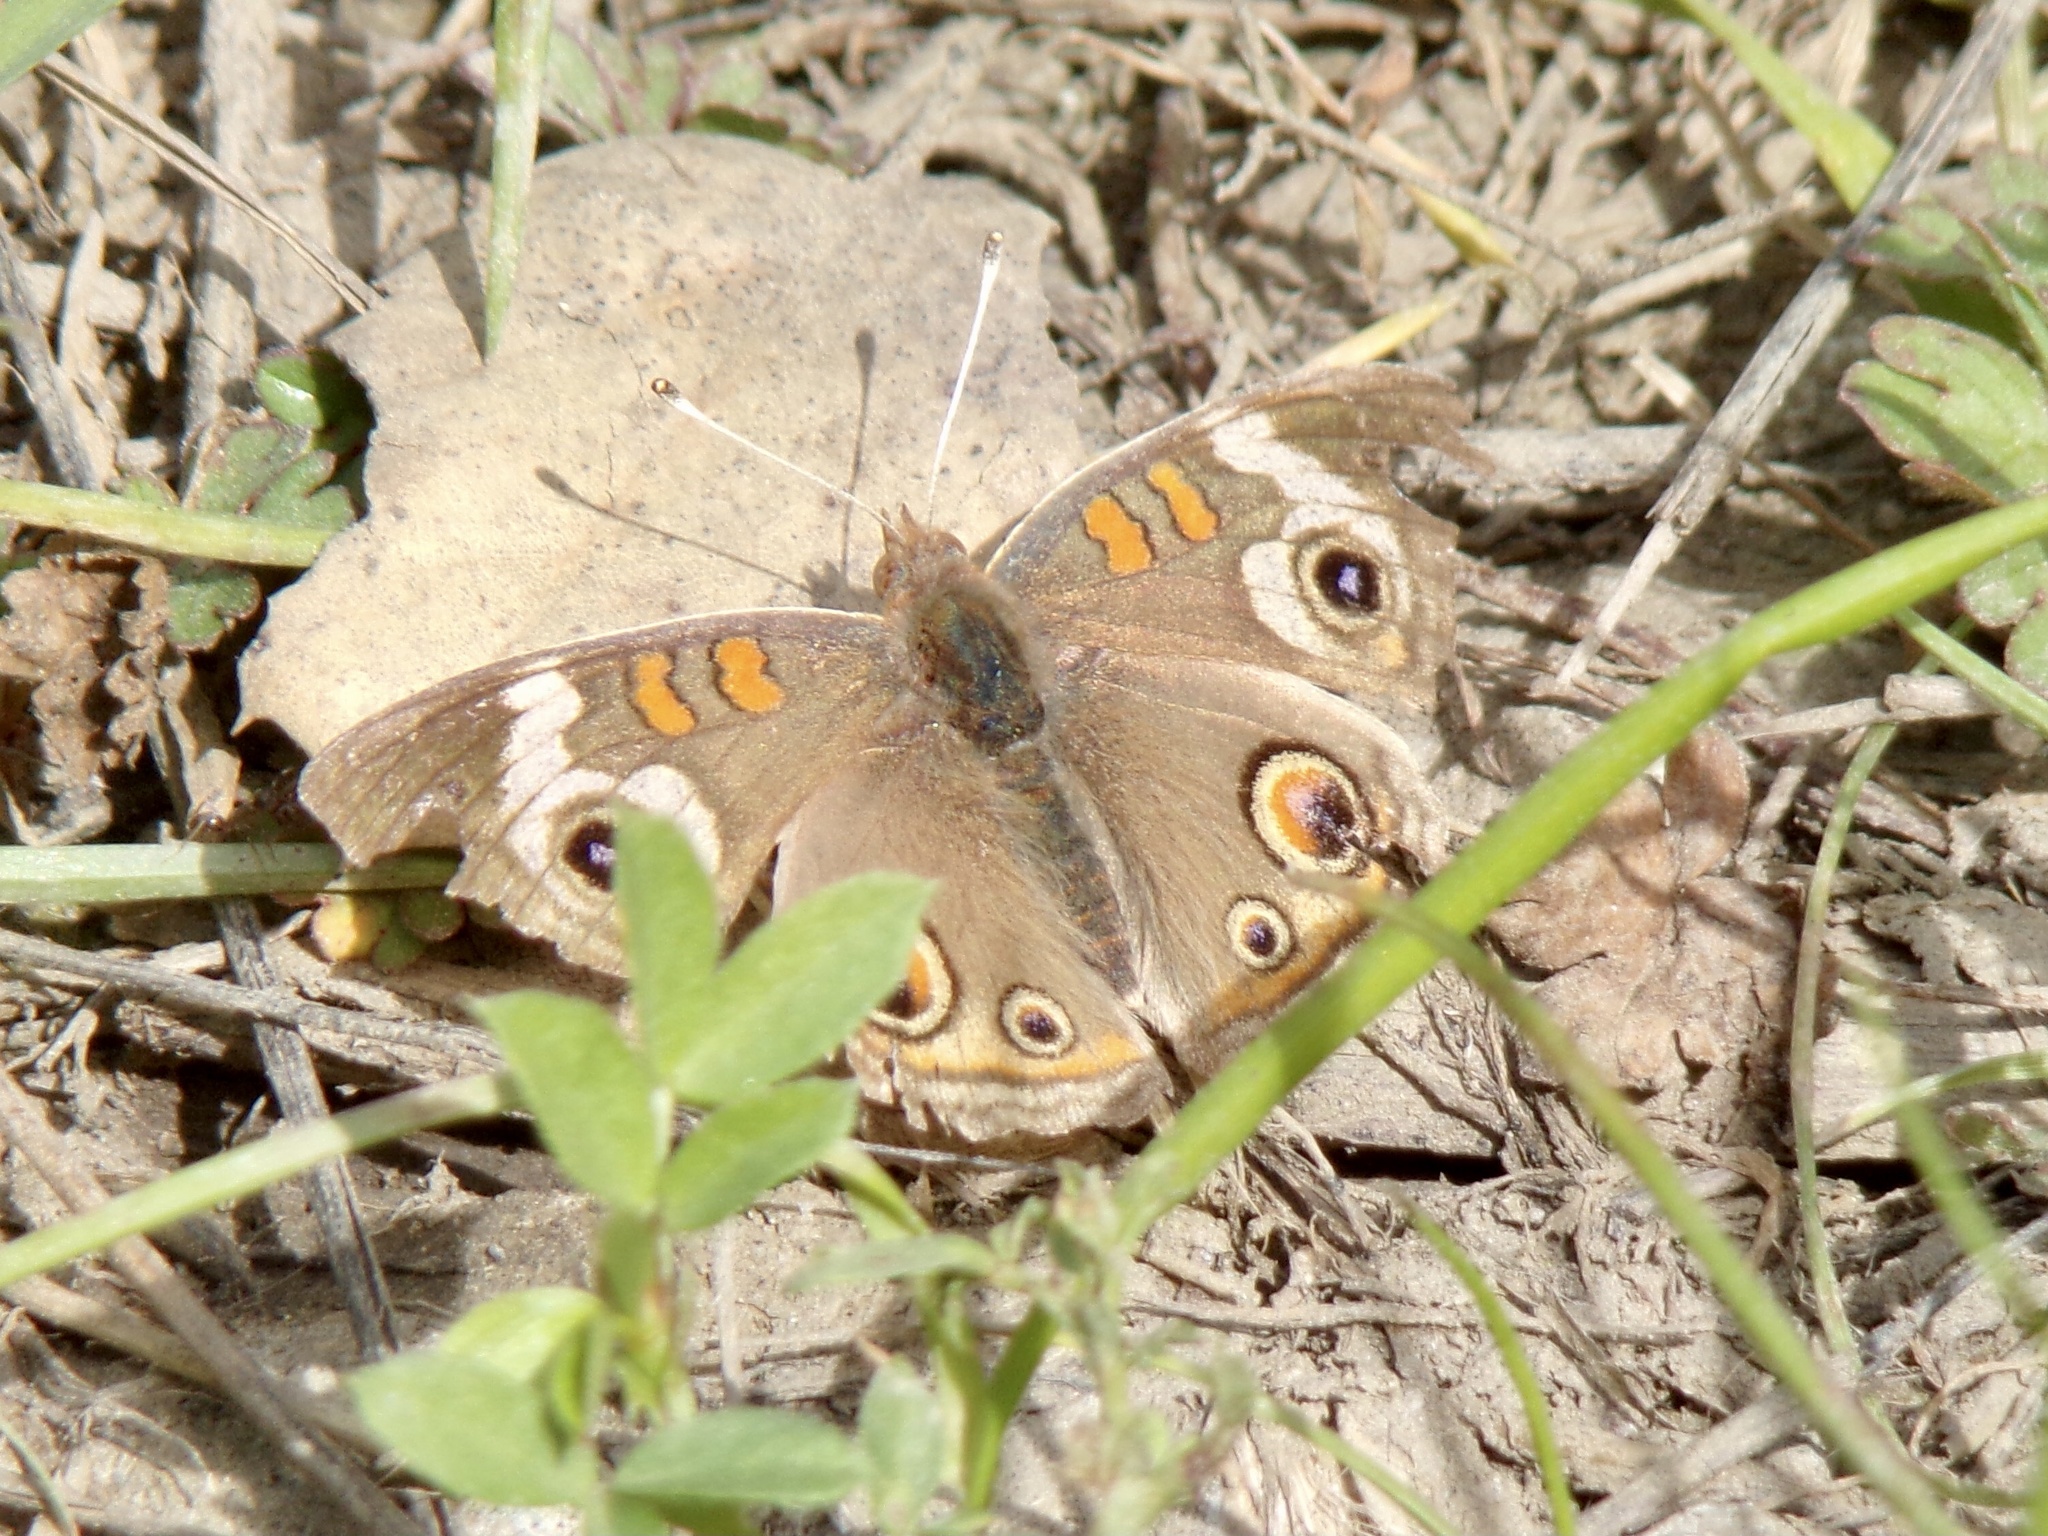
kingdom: Animalia
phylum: Arthropoda
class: Insecta
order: Lepidoptera
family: Nymphalidae
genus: Junonia
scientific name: Junonia grisea
